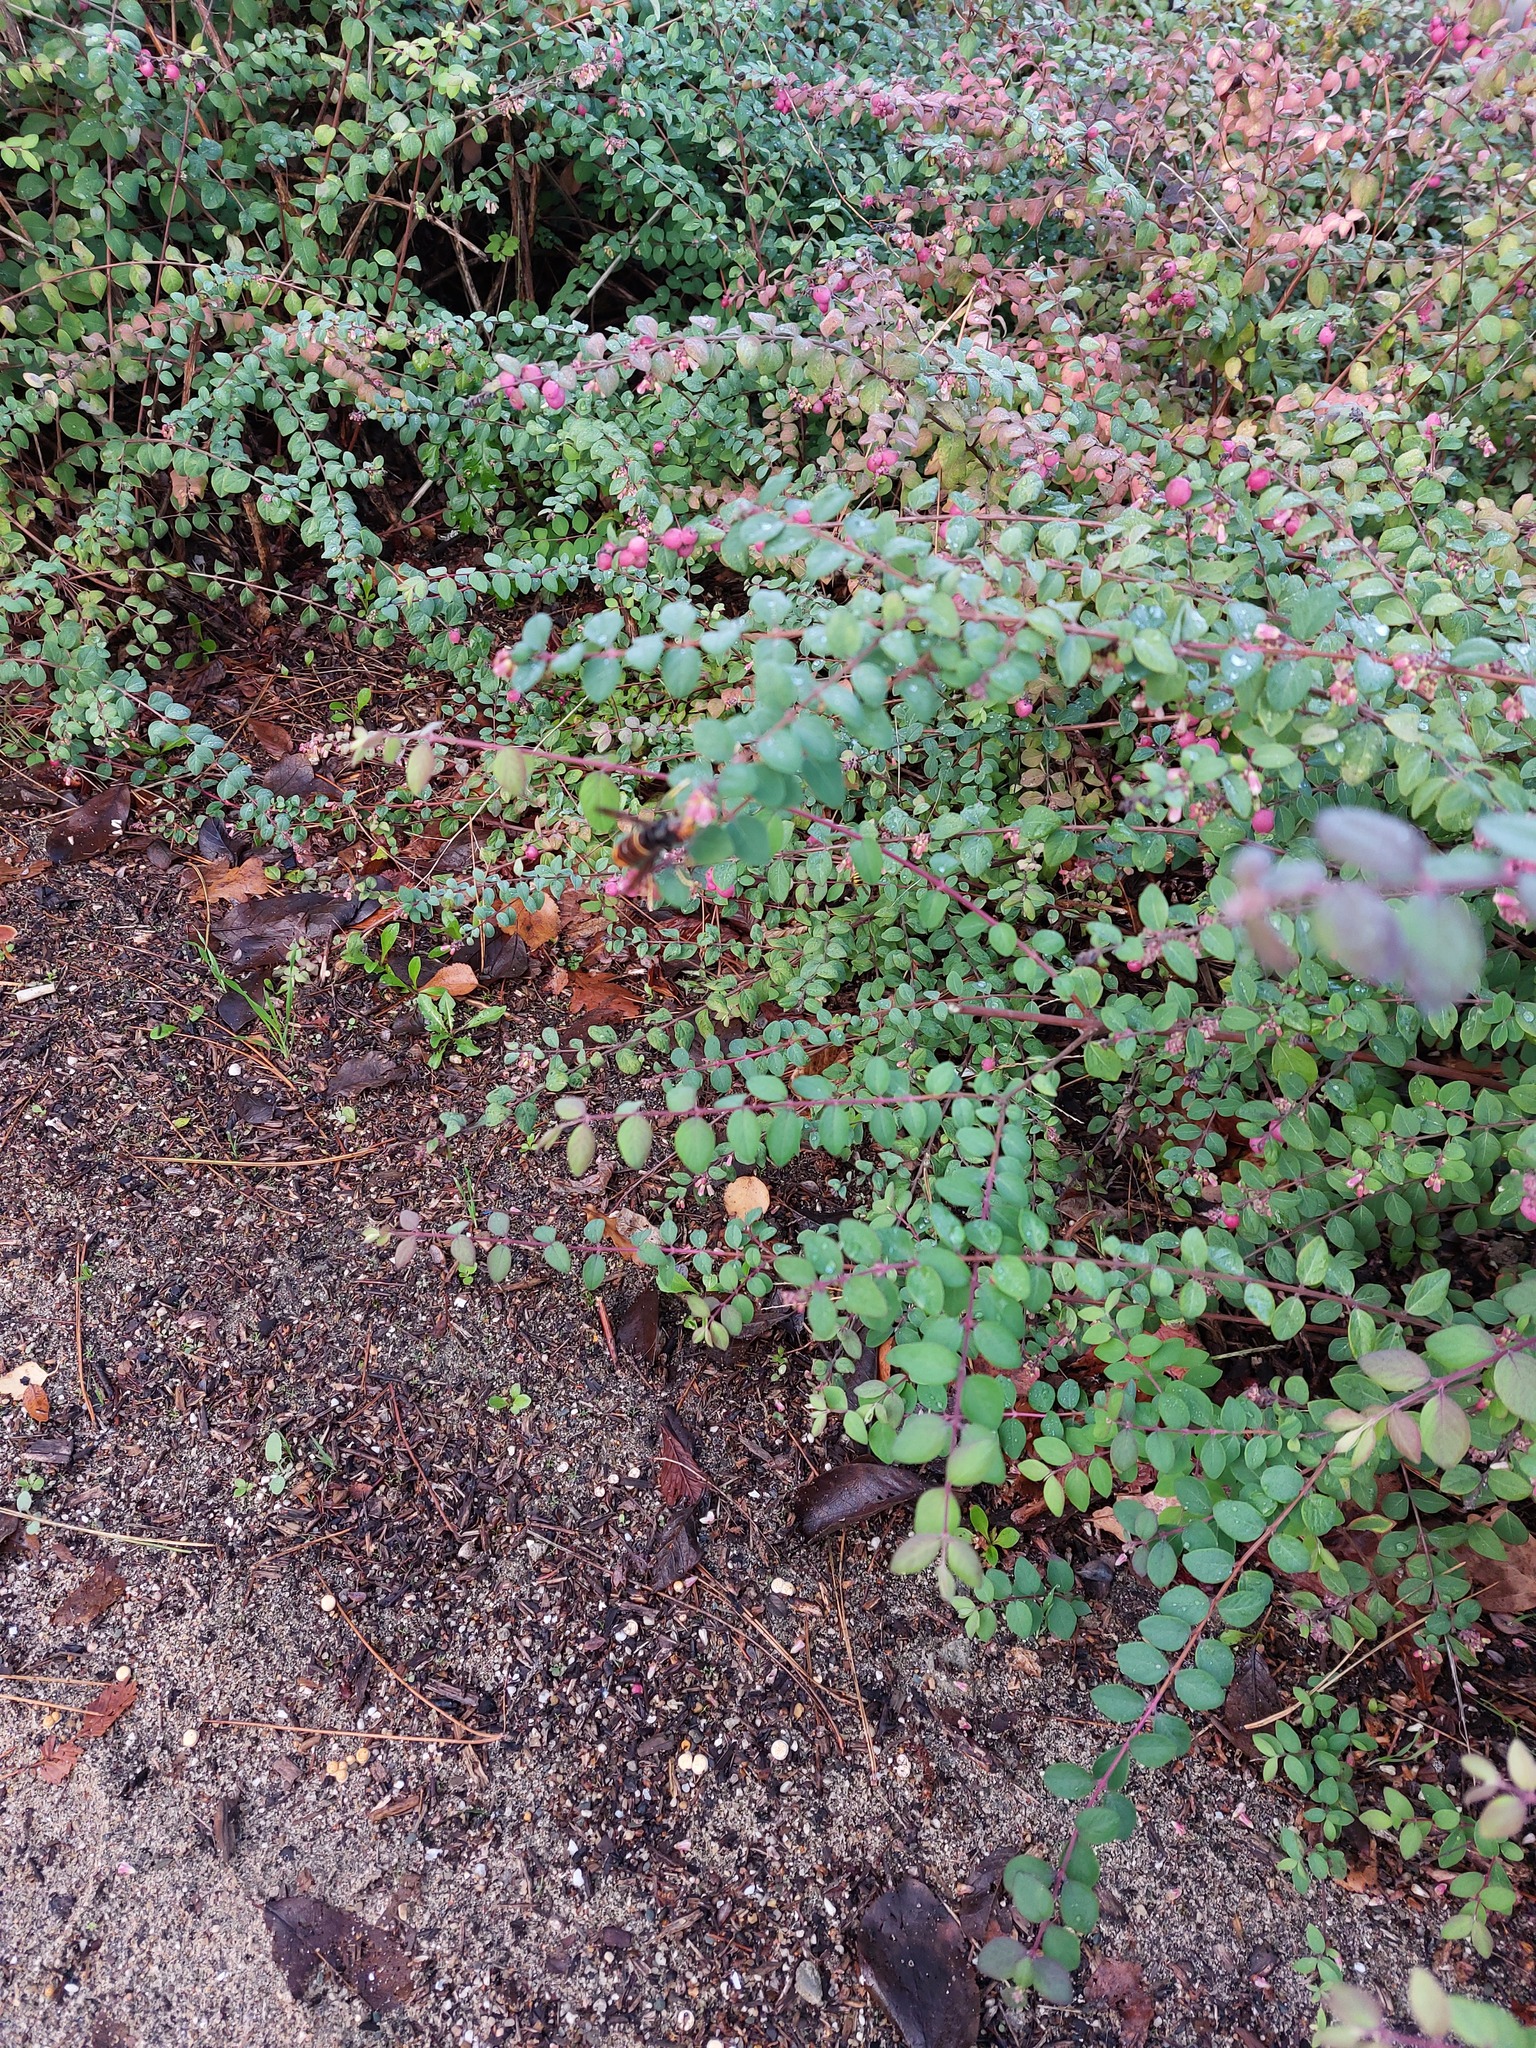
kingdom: Animalia
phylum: Arthropoda
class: Insecta
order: Hymenoptera
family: Vespidae
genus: Vespa
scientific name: Vespa velutina
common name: Asian hornet
